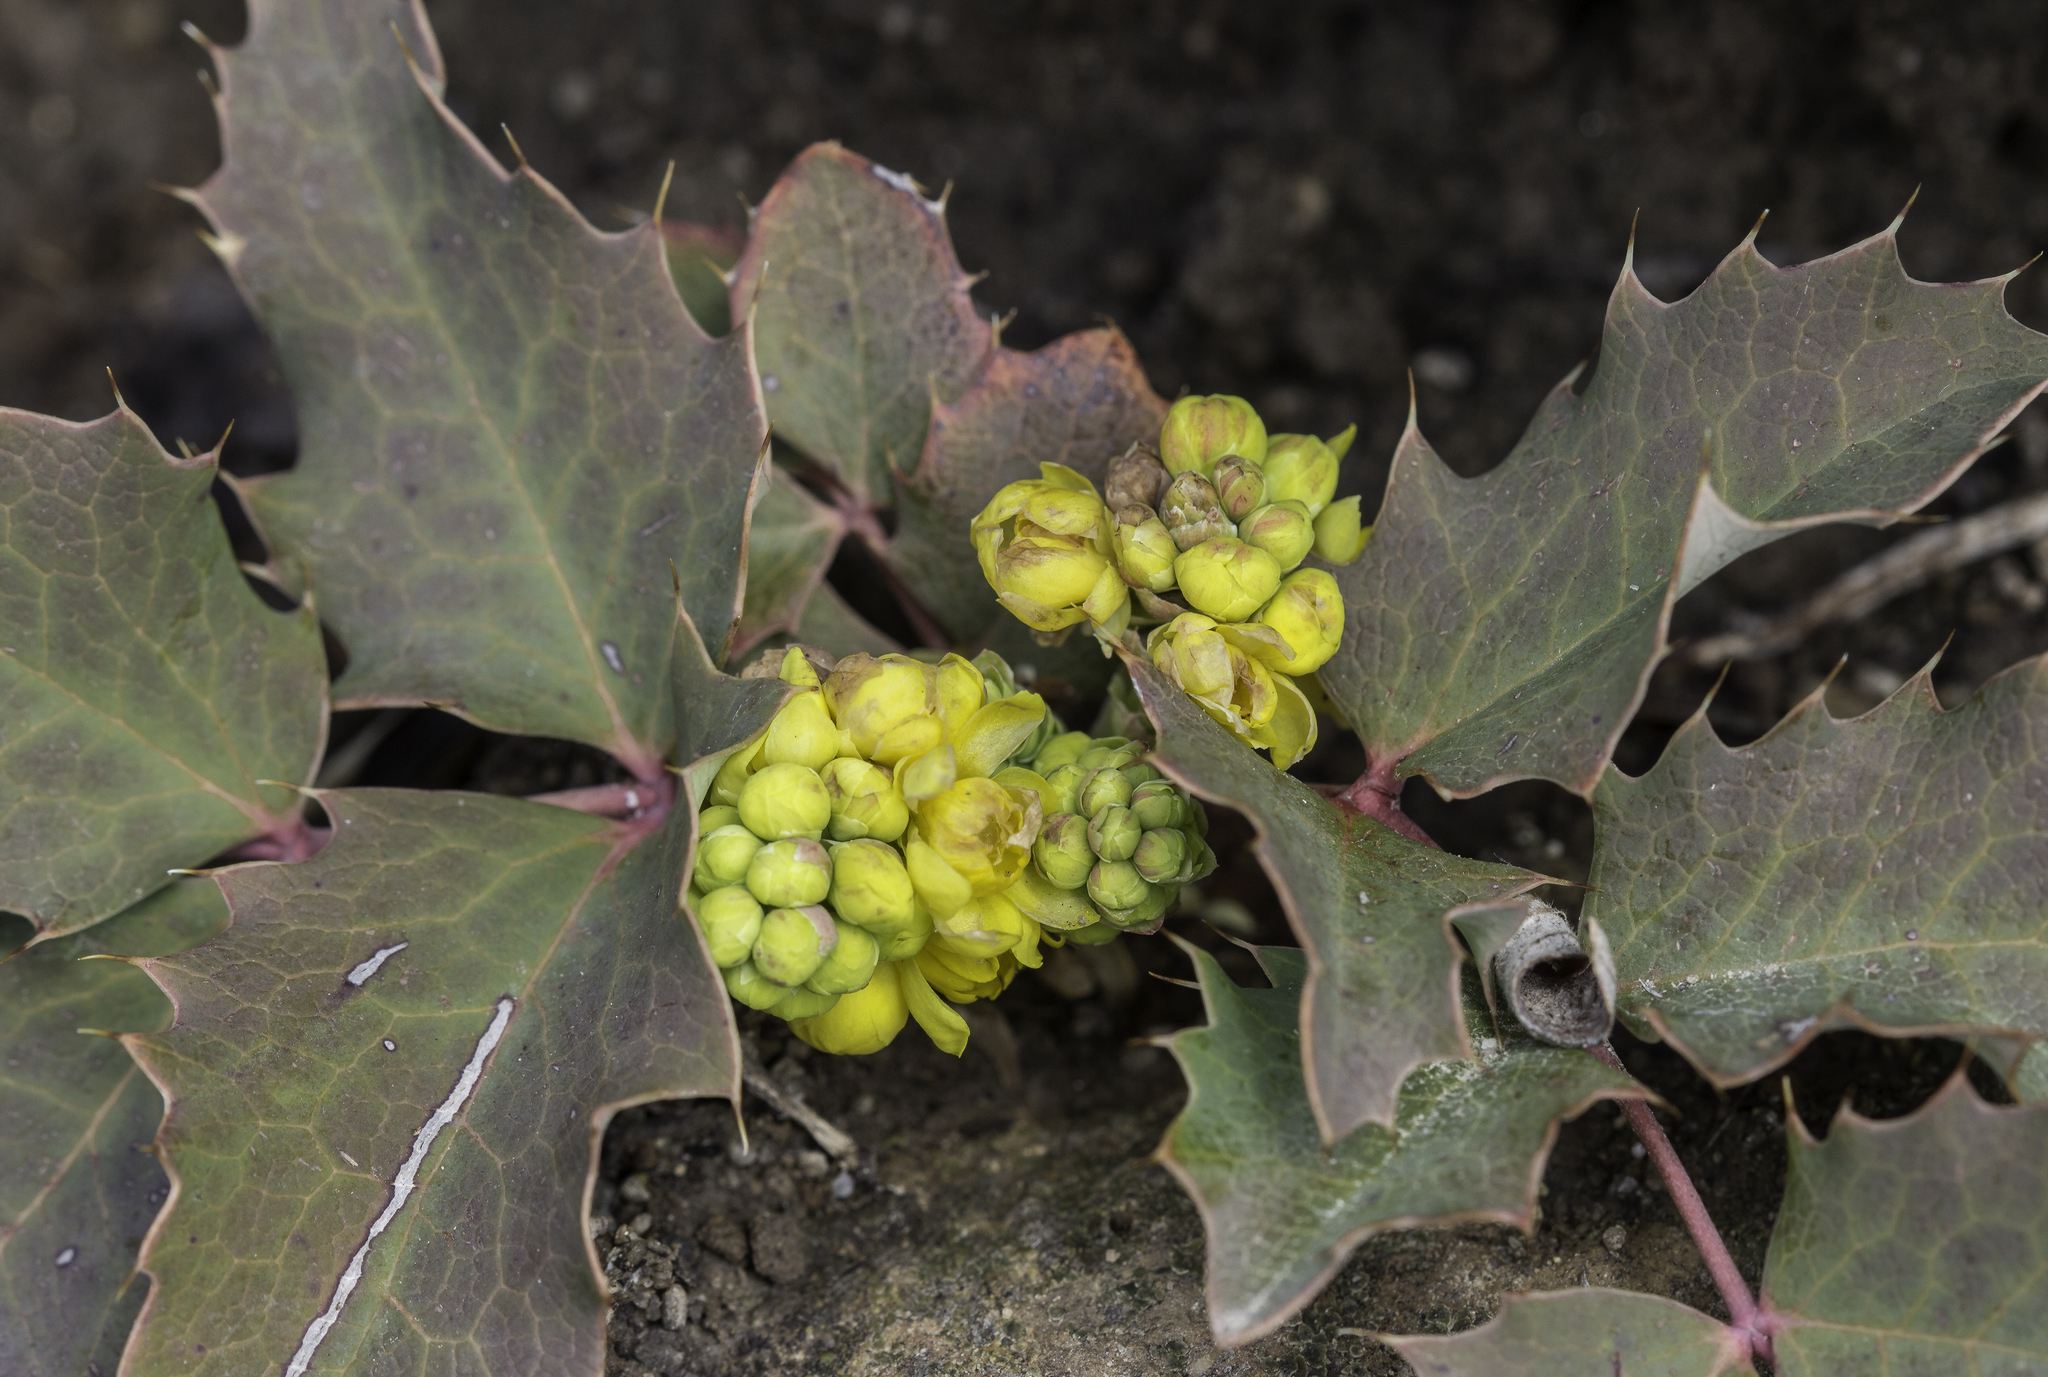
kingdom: Plantae
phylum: Tracheophyta
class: Magnoliopsida
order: Ranunculales
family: Berberidaceae
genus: Mahonia
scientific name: Mahonia repens
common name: Creeping oregon-grape
